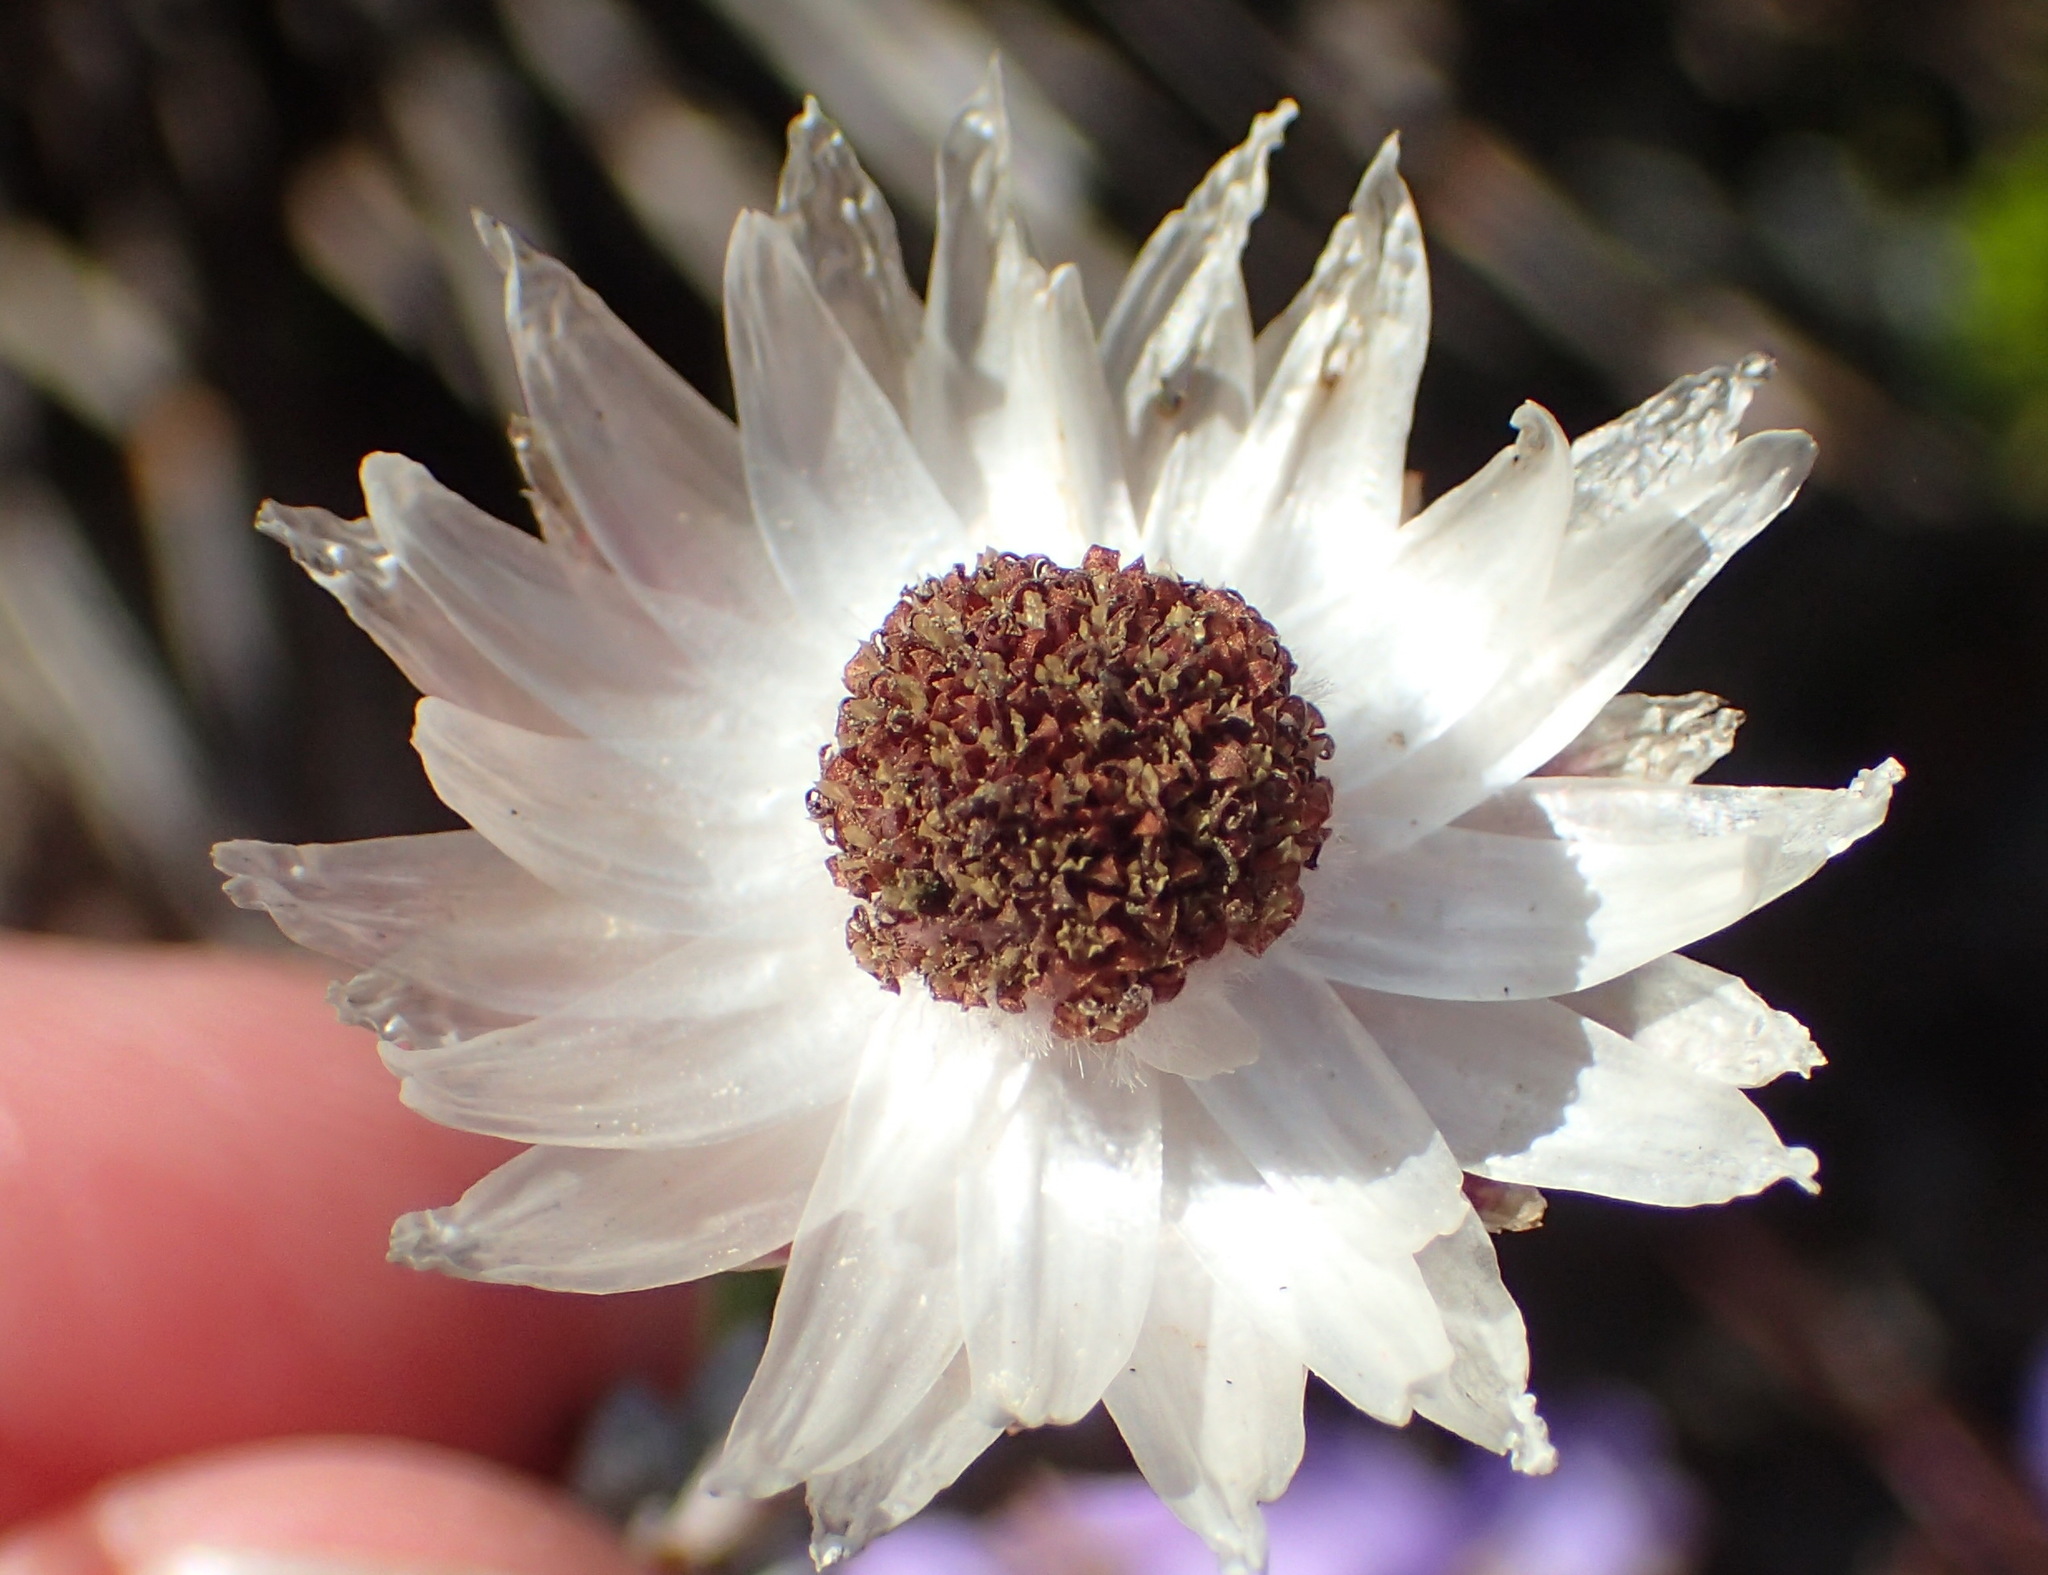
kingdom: Plantae
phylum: Tracheophyta
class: Magnoliopsida
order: Asterales
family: Asteraceae
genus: Syncarpha
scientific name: Syncarpha canescens
